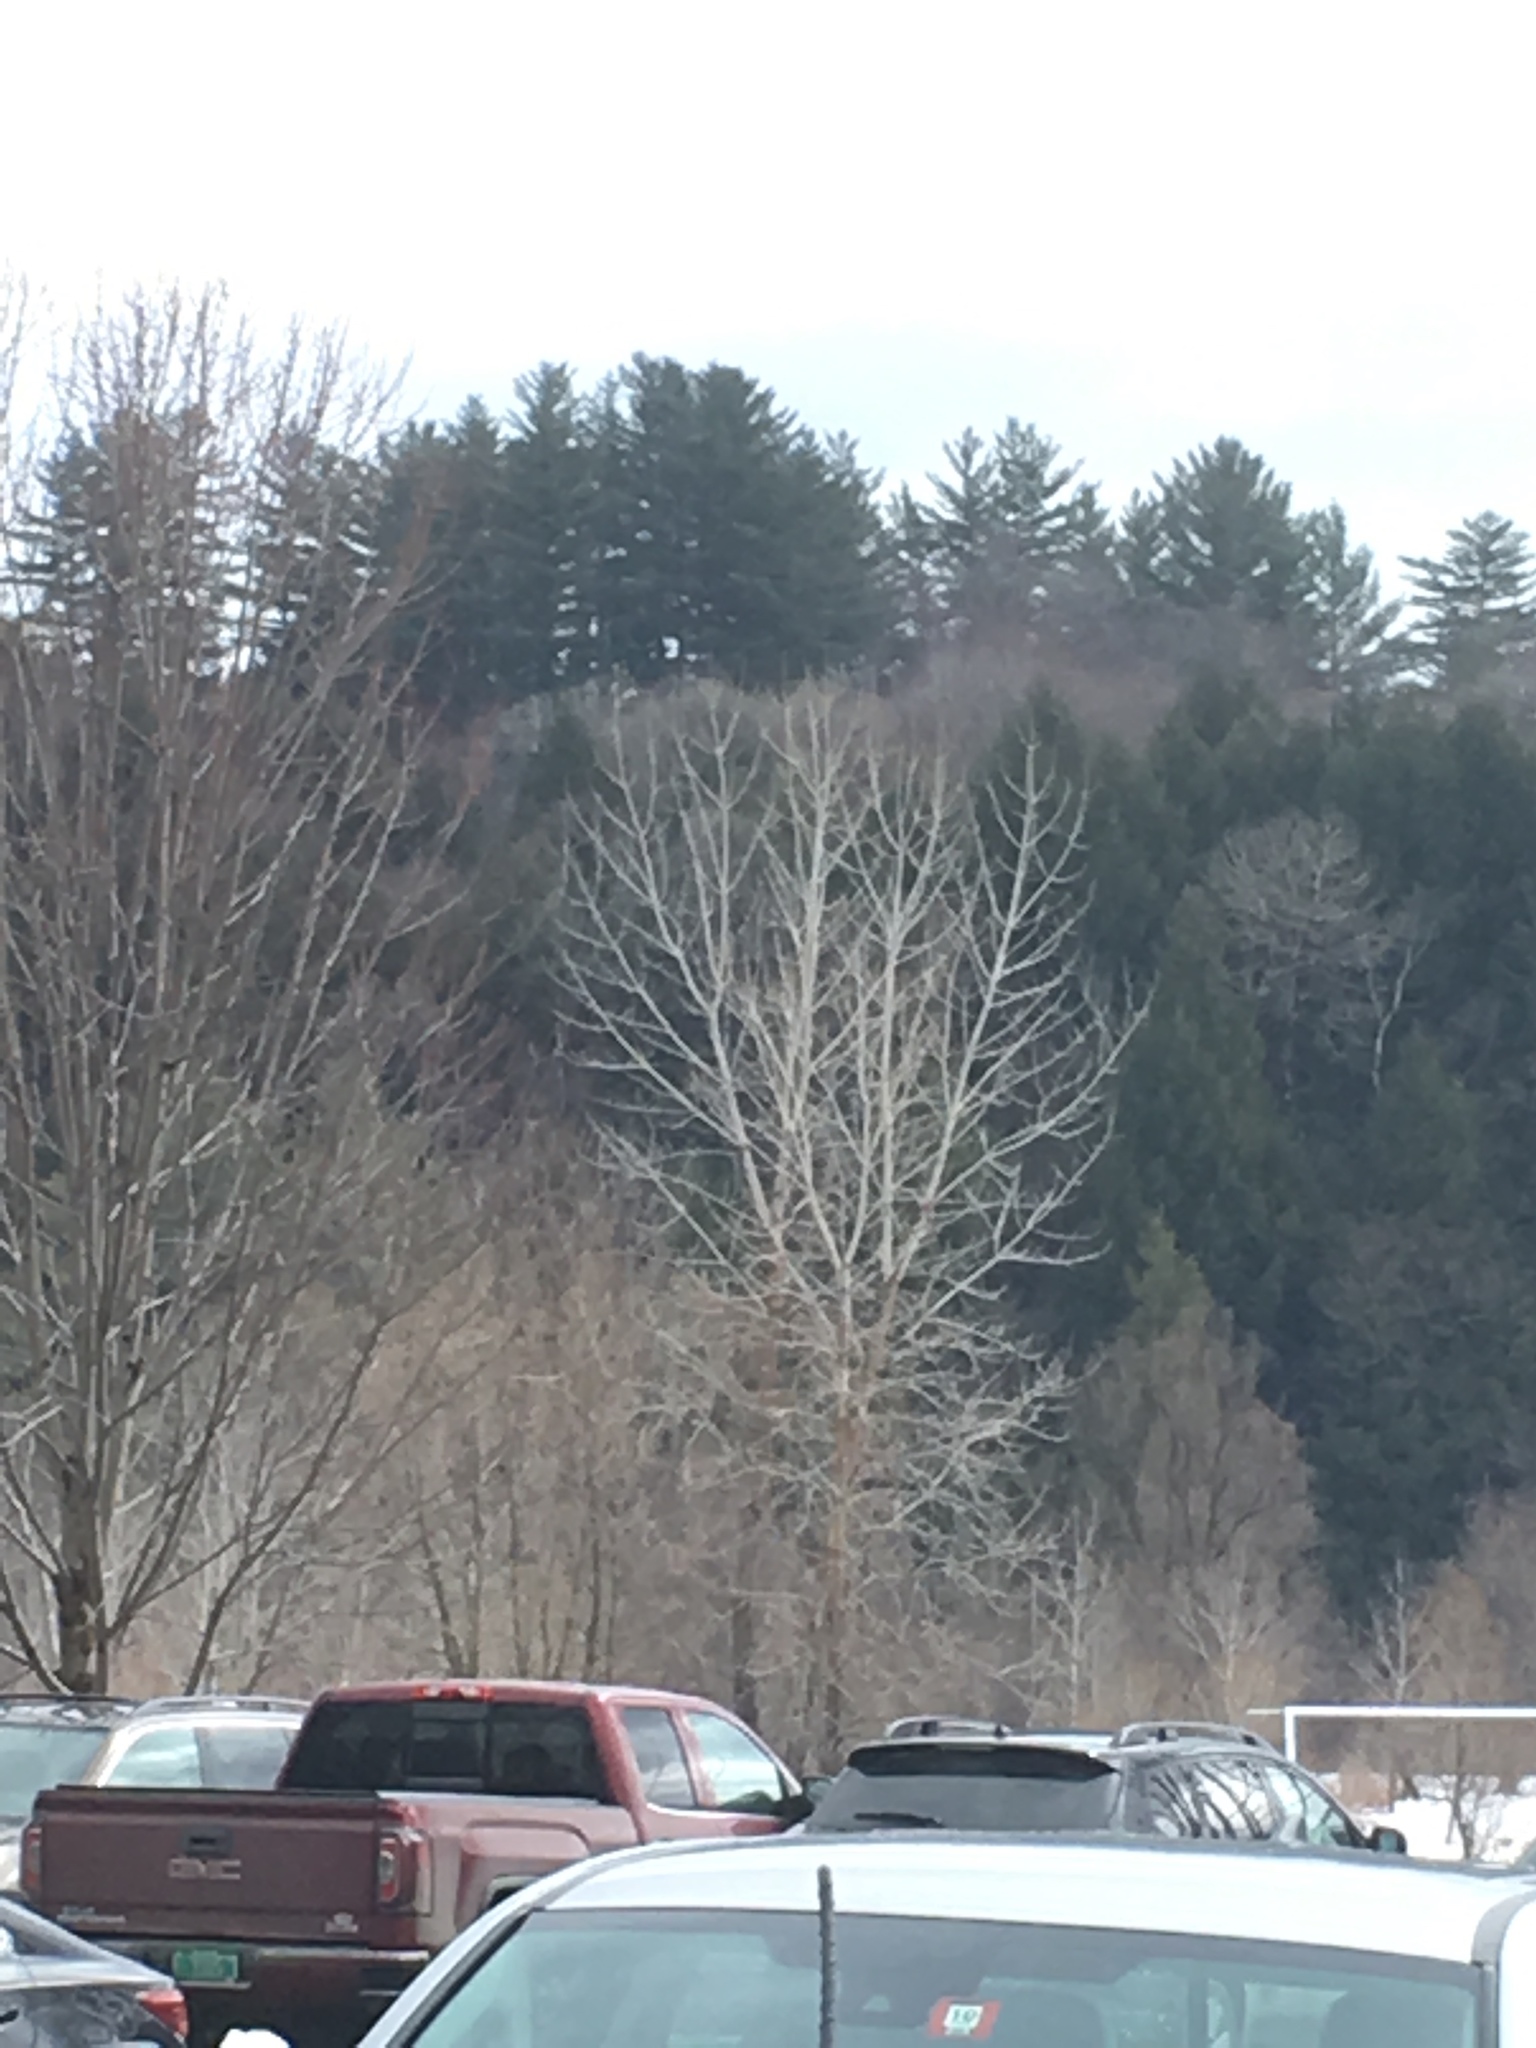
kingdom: Plantae
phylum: Tracheophyta
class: Pinopsida
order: Pinales
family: Pinaceae
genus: Pinus
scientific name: Pinus strobus
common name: Weymouth pine
